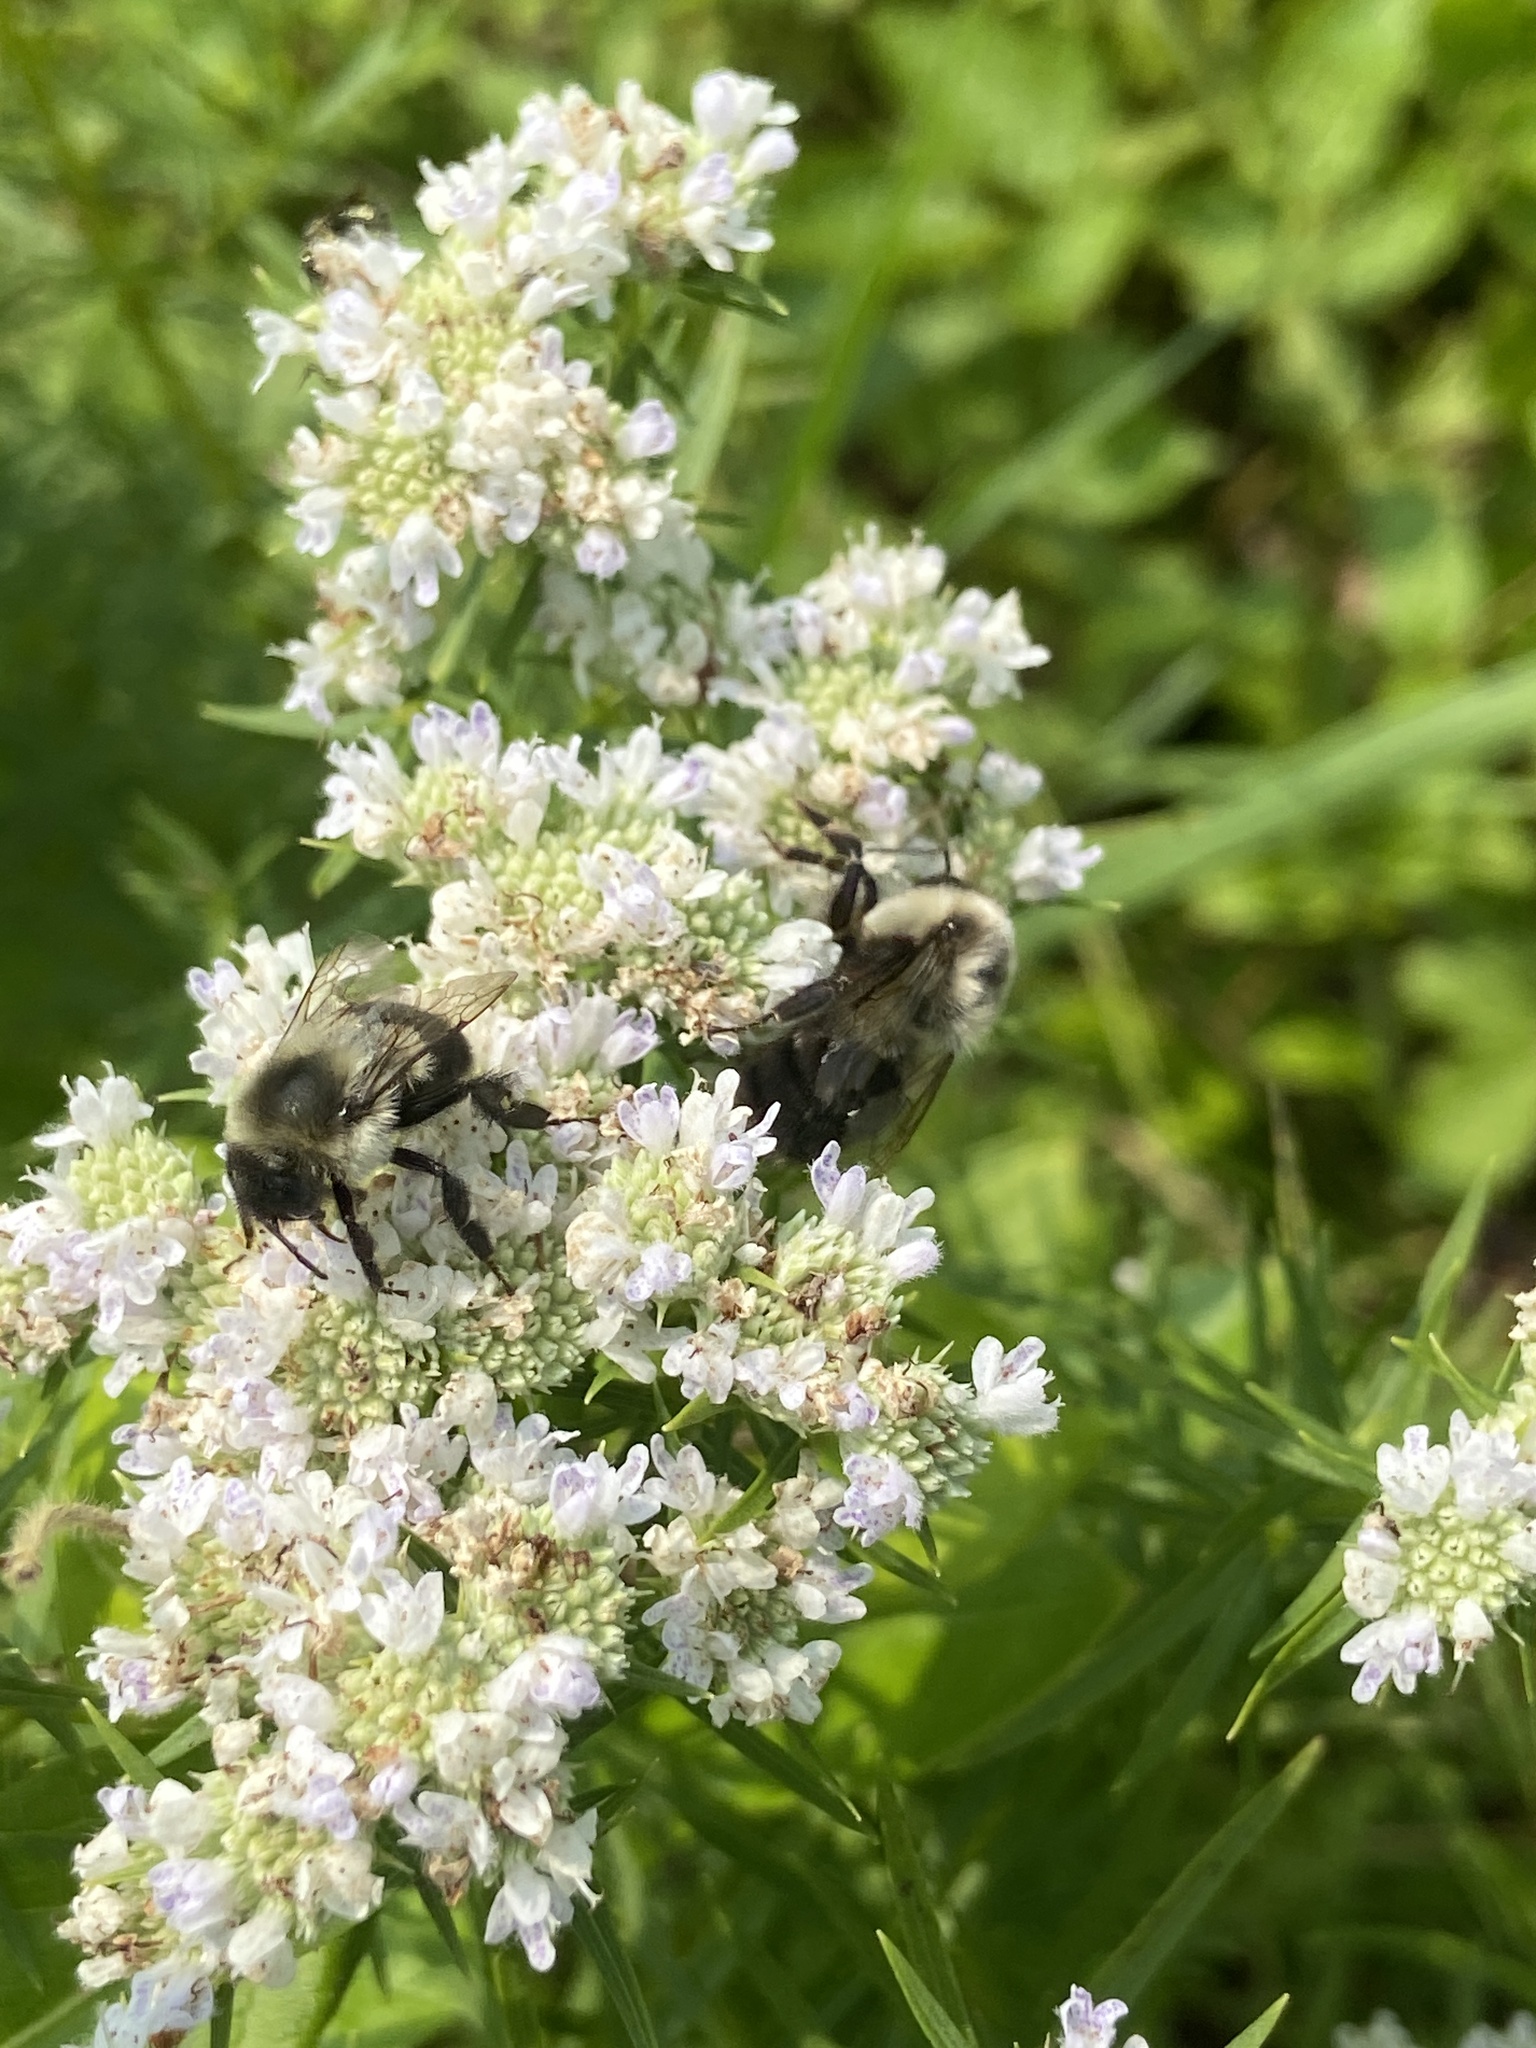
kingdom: Animalia
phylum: Arthropoda
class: Insecta
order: Hymenoptera
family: Apidae
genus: Bombus
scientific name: Bombus impatiens
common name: Common eastern bumble bee
